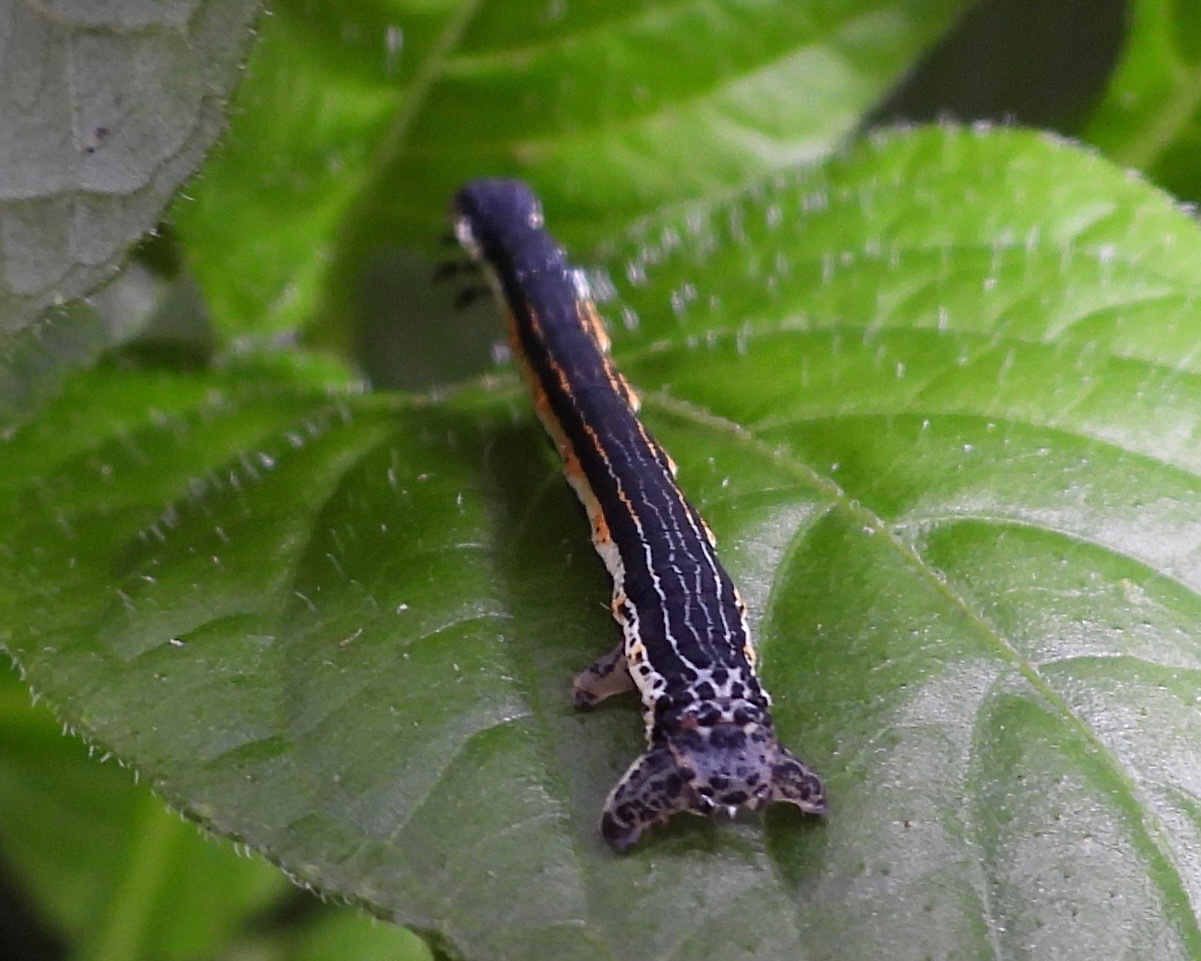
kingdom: Animalia
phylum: Arthropoda
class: Insecta
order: Lepidoptera
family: Geometridae
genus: Simena
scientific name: Simena luctifera
